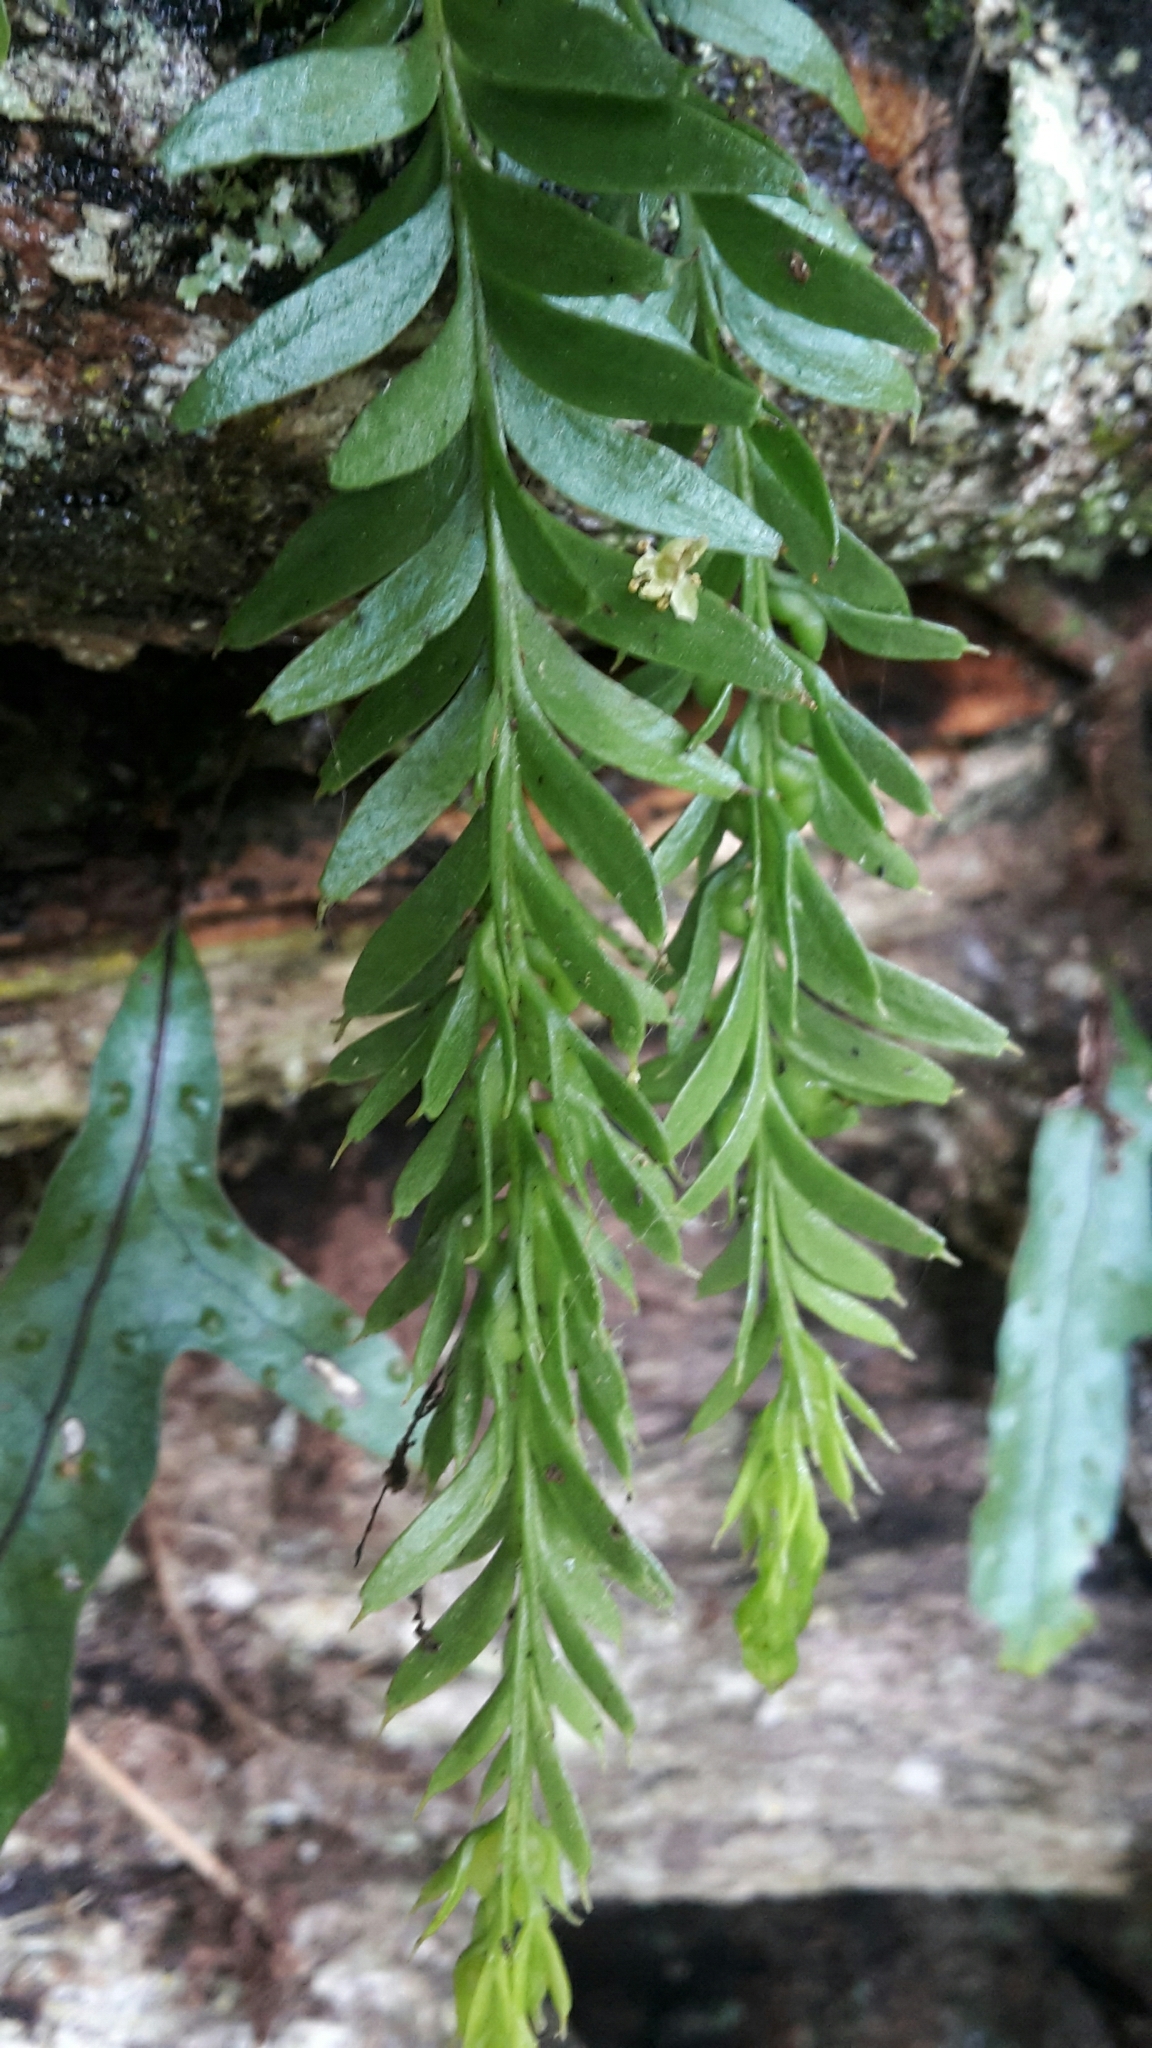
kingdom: Plantae
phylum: Tracheophyta
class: Polypodiopsida
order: Psilotales
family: Psilotaceae
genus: Tmesipteris
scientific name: Tmesipteris tannensis
